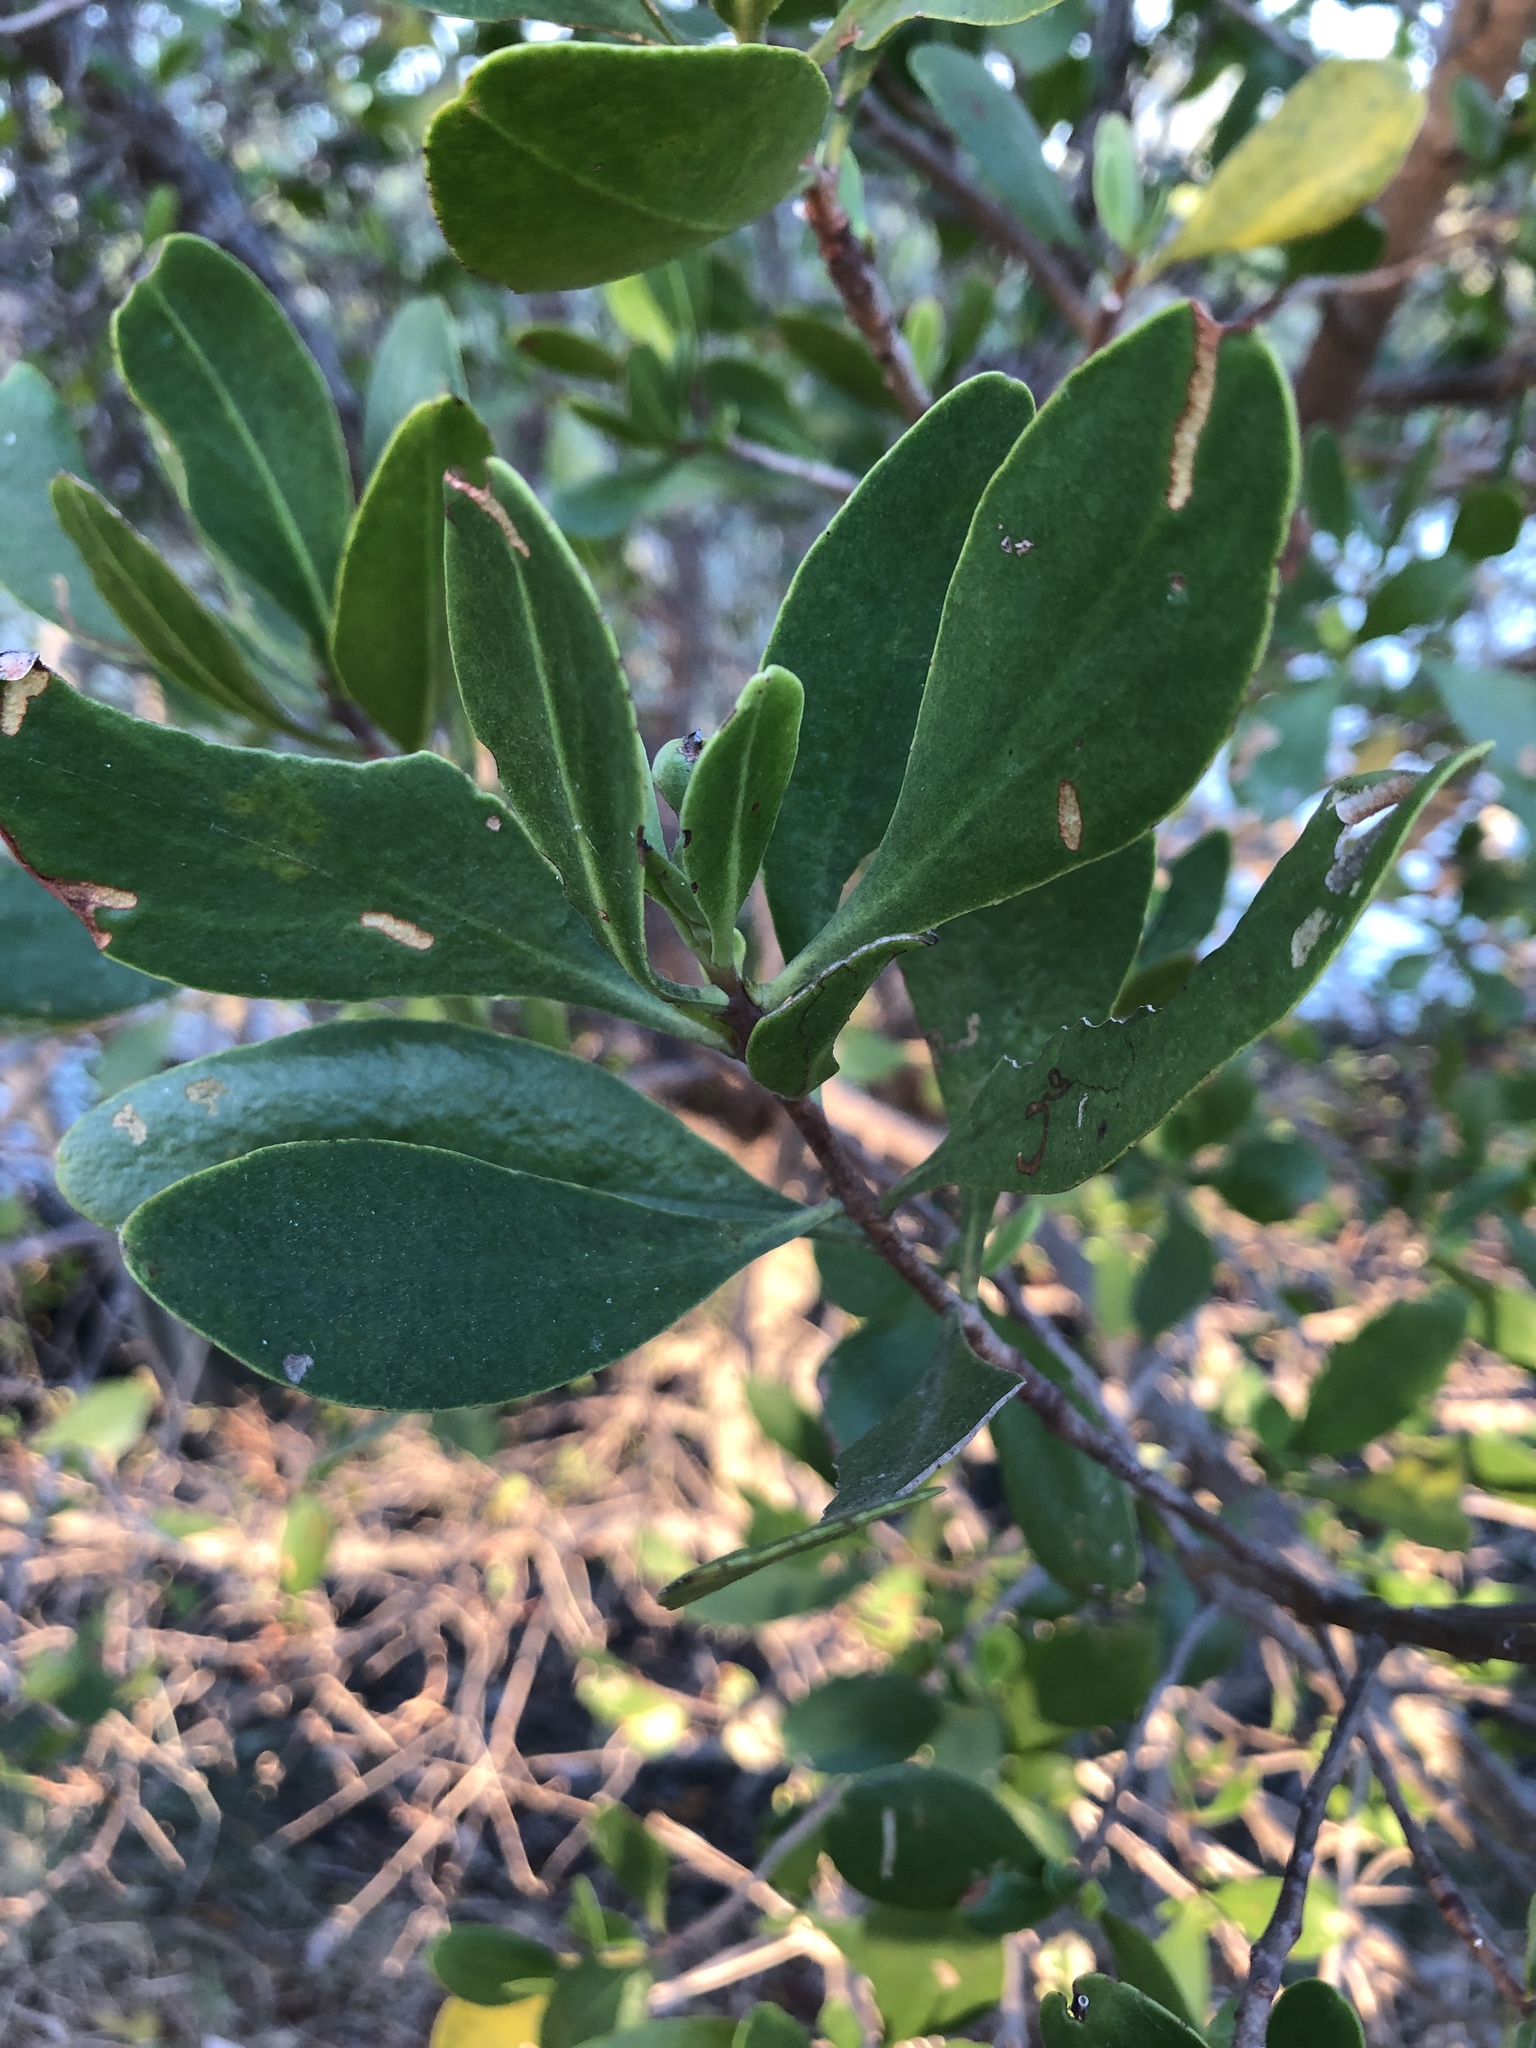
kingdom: Plantae
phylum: Tracheophyta
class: Magnoliopsida
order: Myrtales
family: Combretaceae
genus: Lumnitzera
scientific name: Lumnitzera racemosa
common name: White-flowered black mangrove
